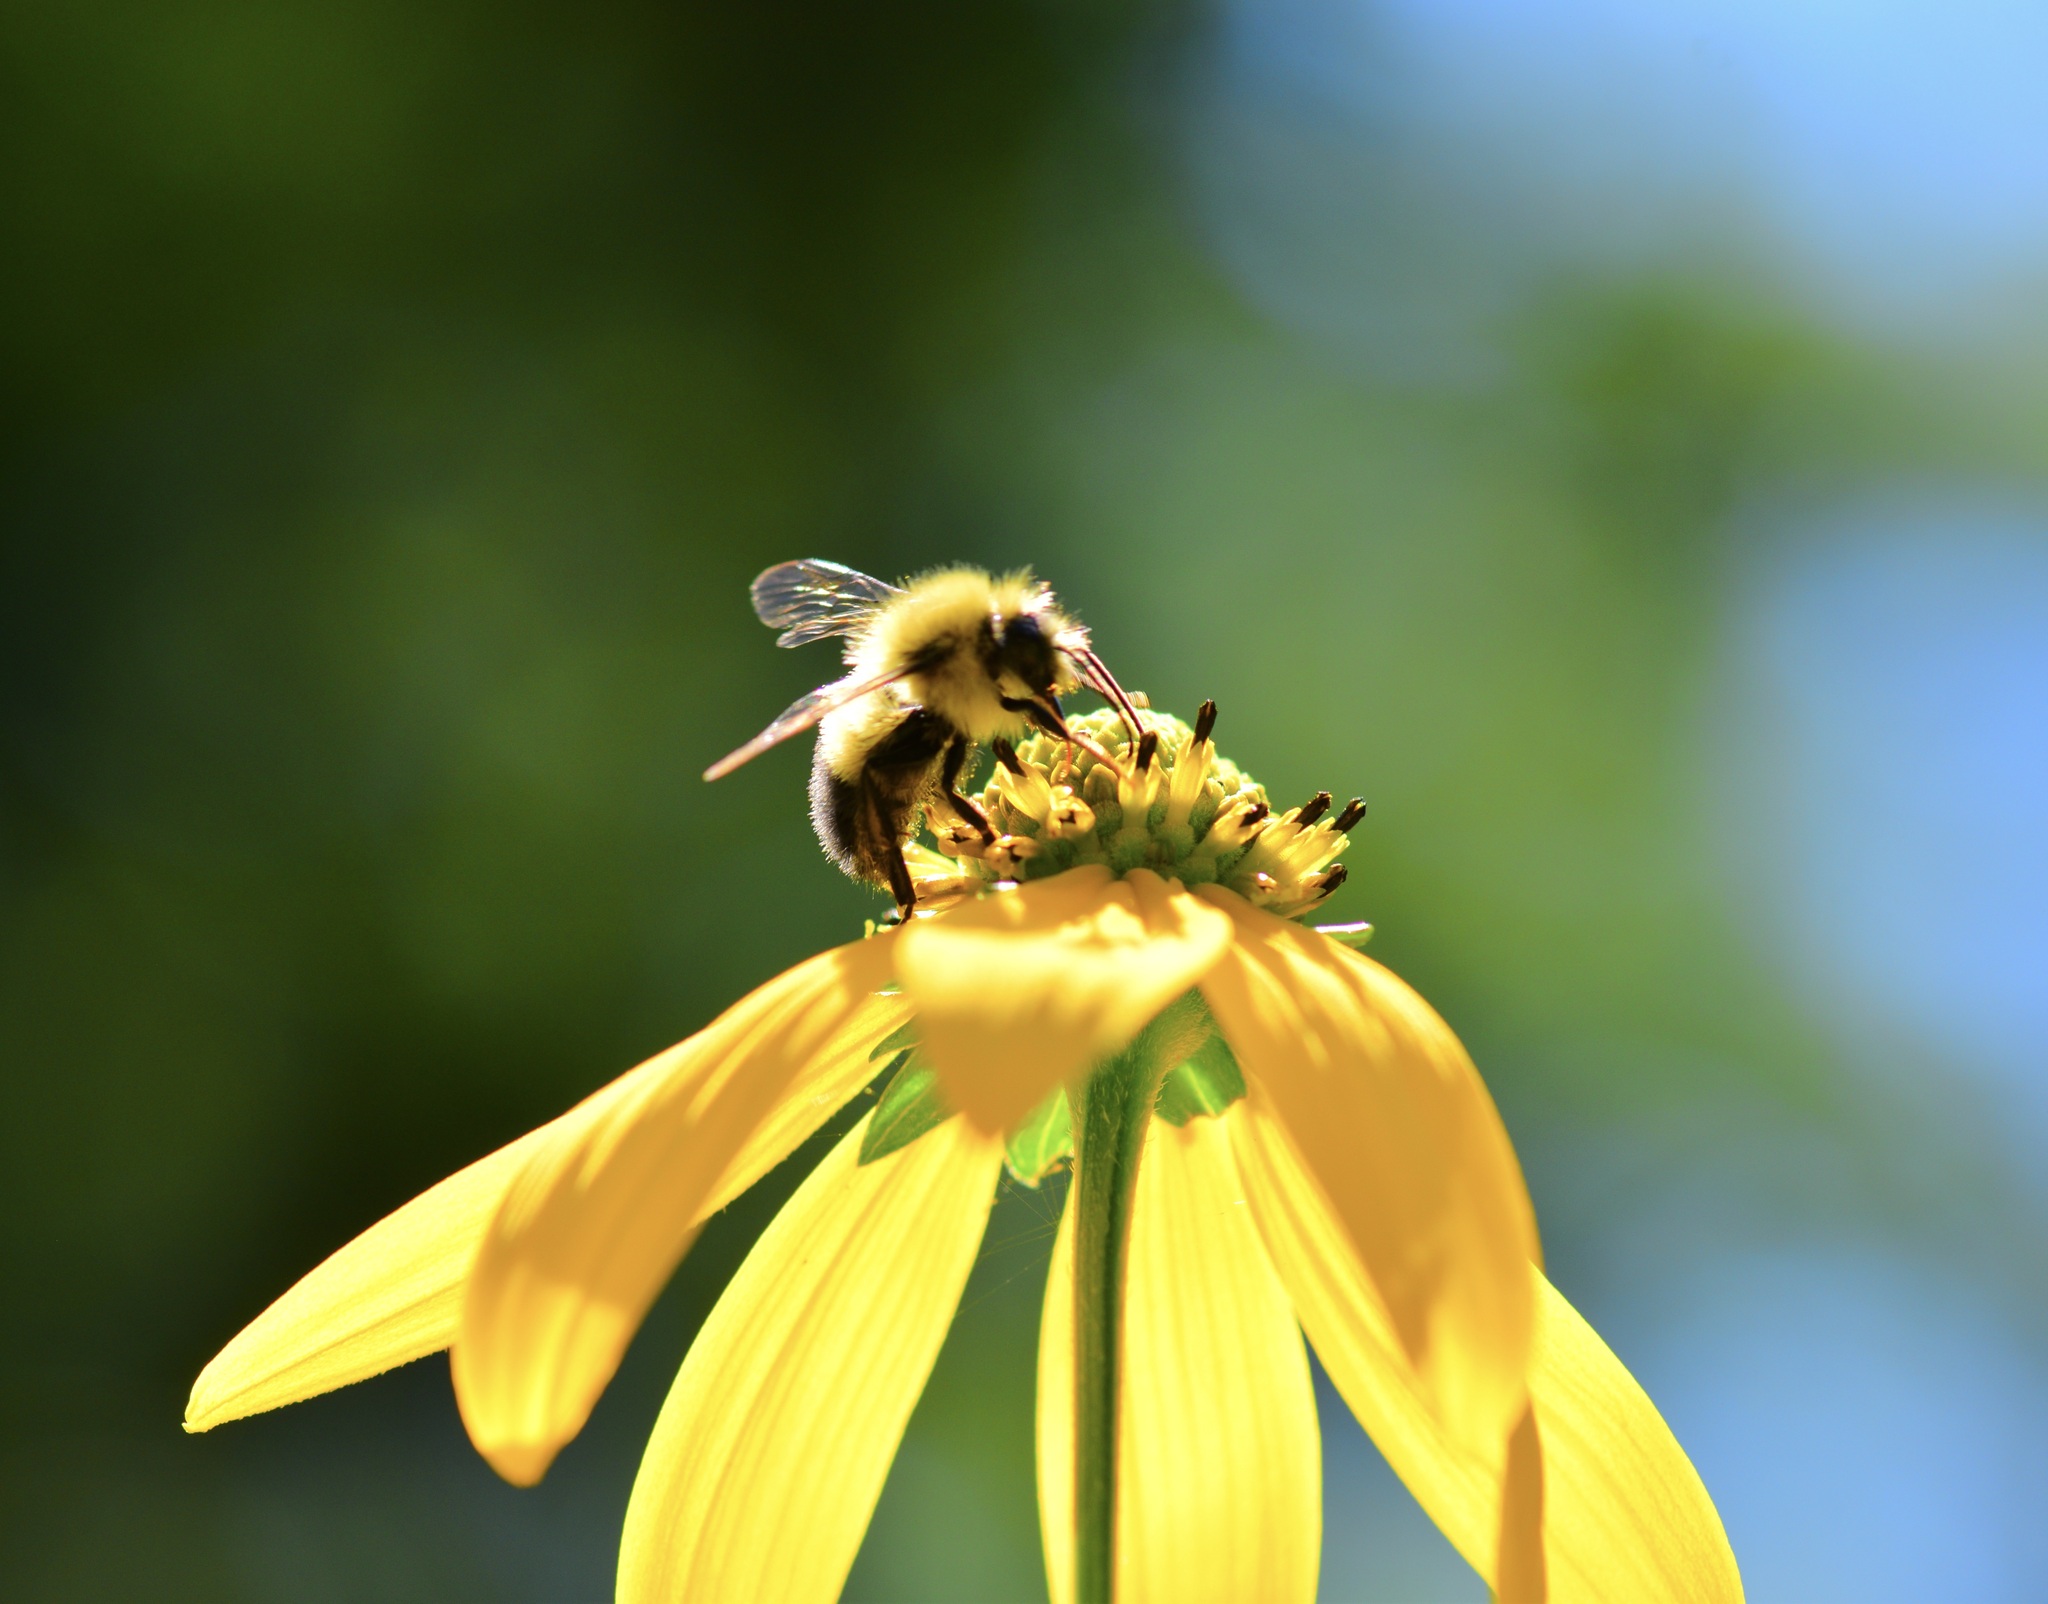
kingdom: Animalia
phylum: Arthropoda
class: Insecta
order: Hymenoptera
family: Apidae
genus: Bombus
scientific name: Bombus vagans
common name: Half-black bumble bee
